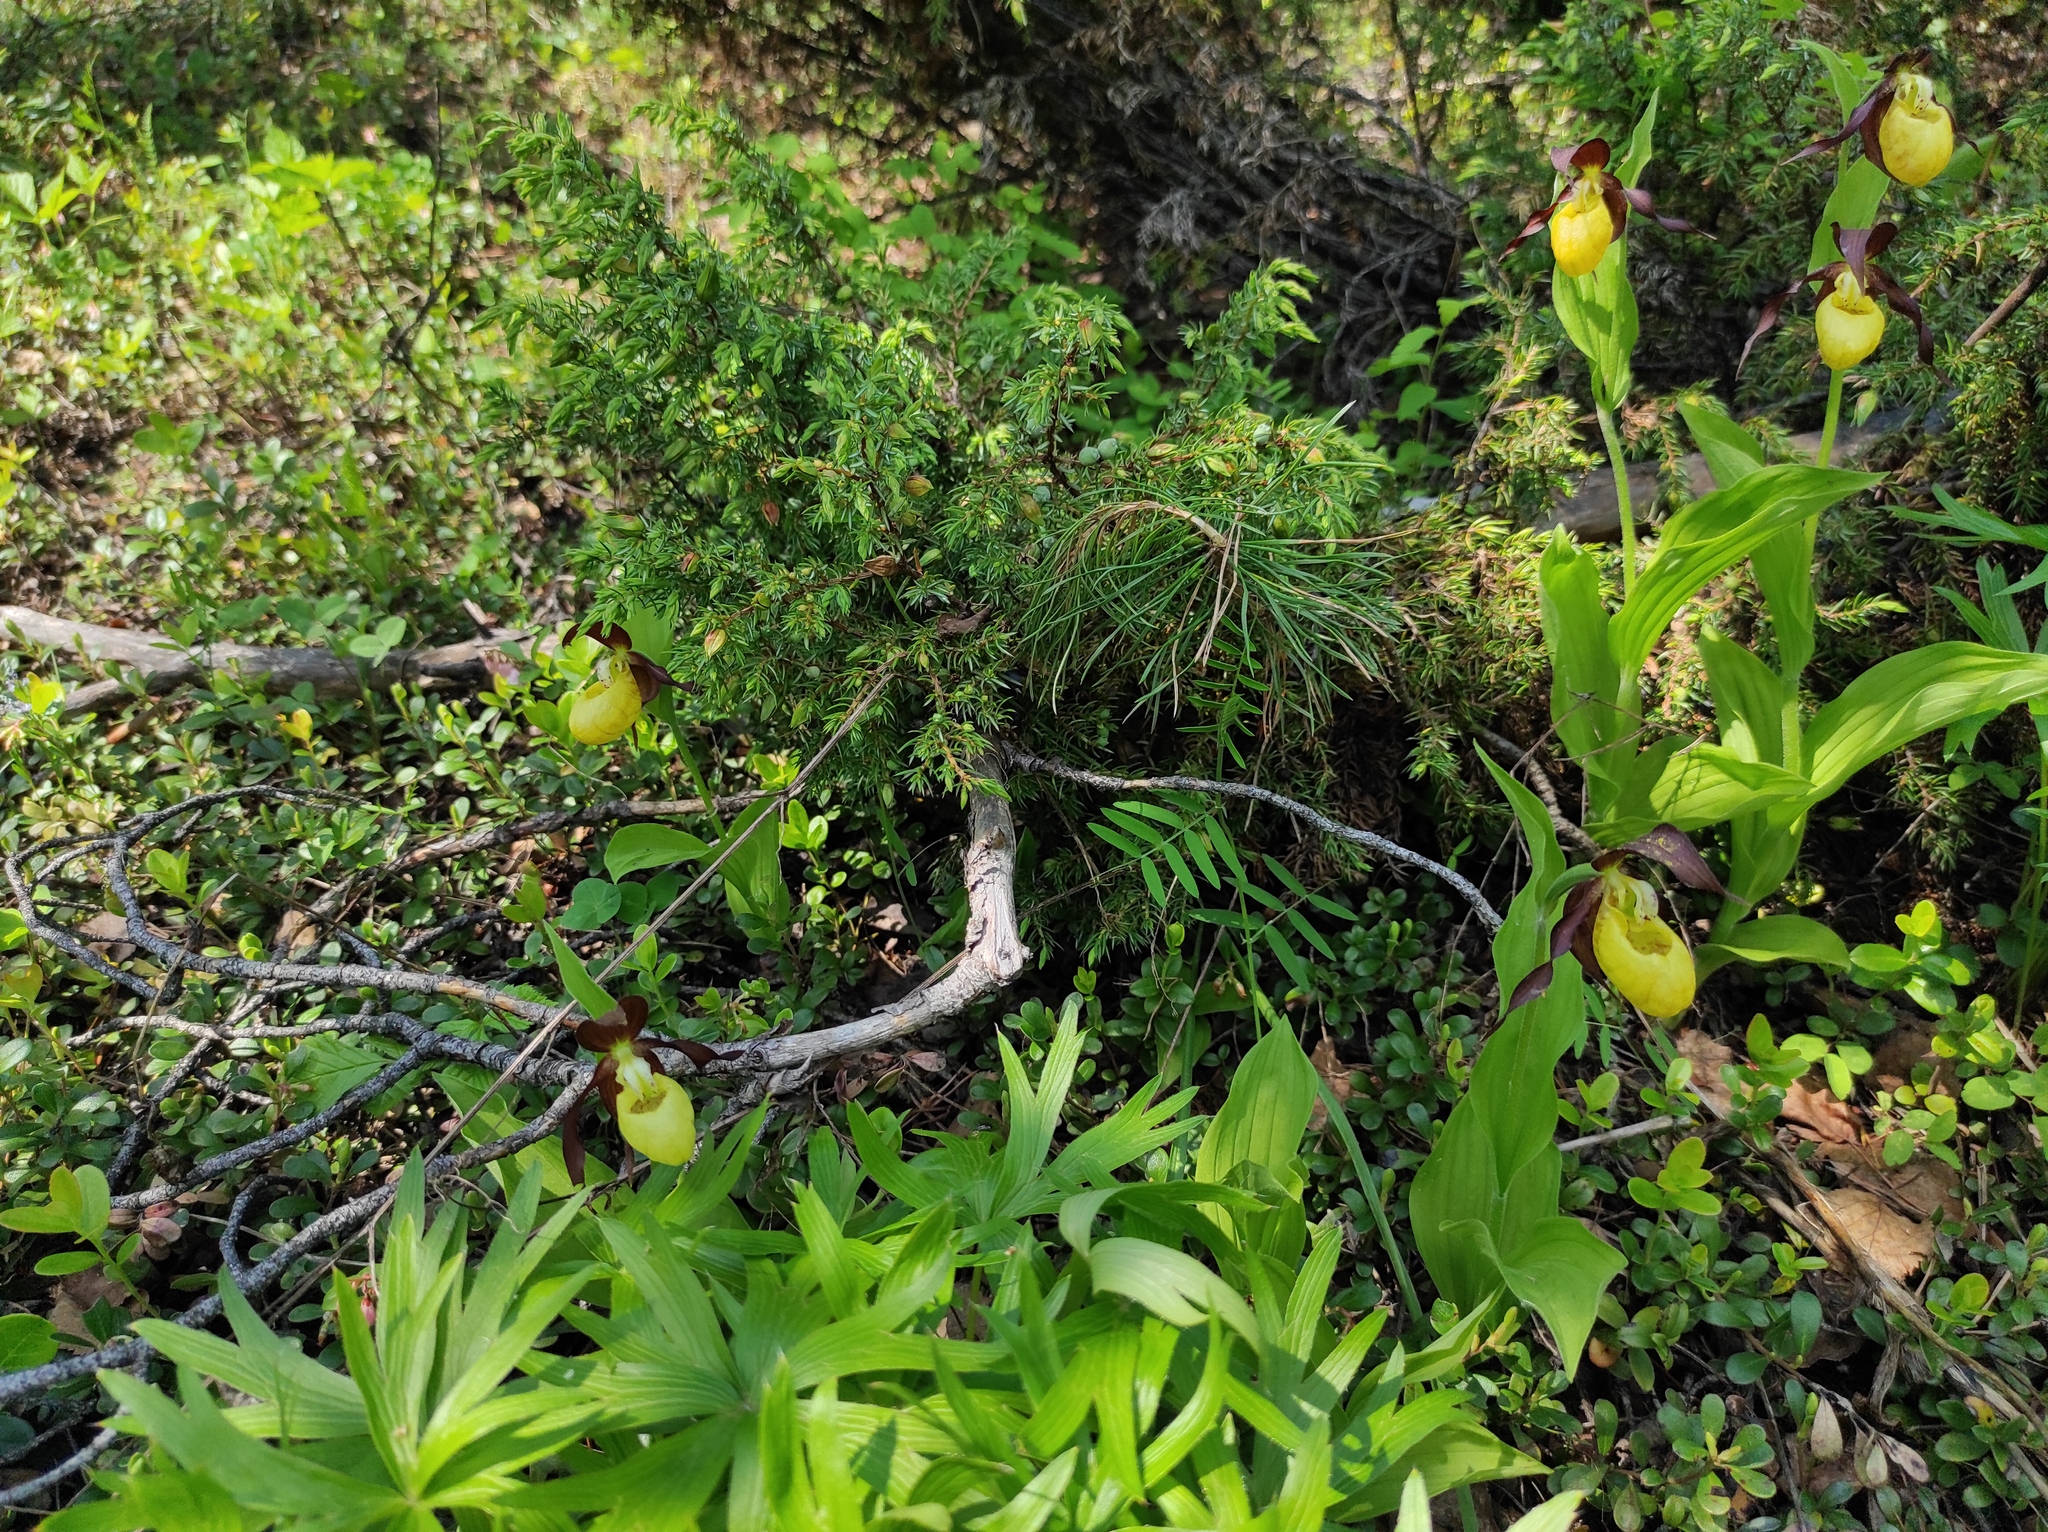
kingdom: Plantae
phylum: Tracheophyta
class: Pinopsida
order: Pinales
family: Cupressaceae
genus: Juniperus
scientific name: Juniperus communis
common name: Common juniper
